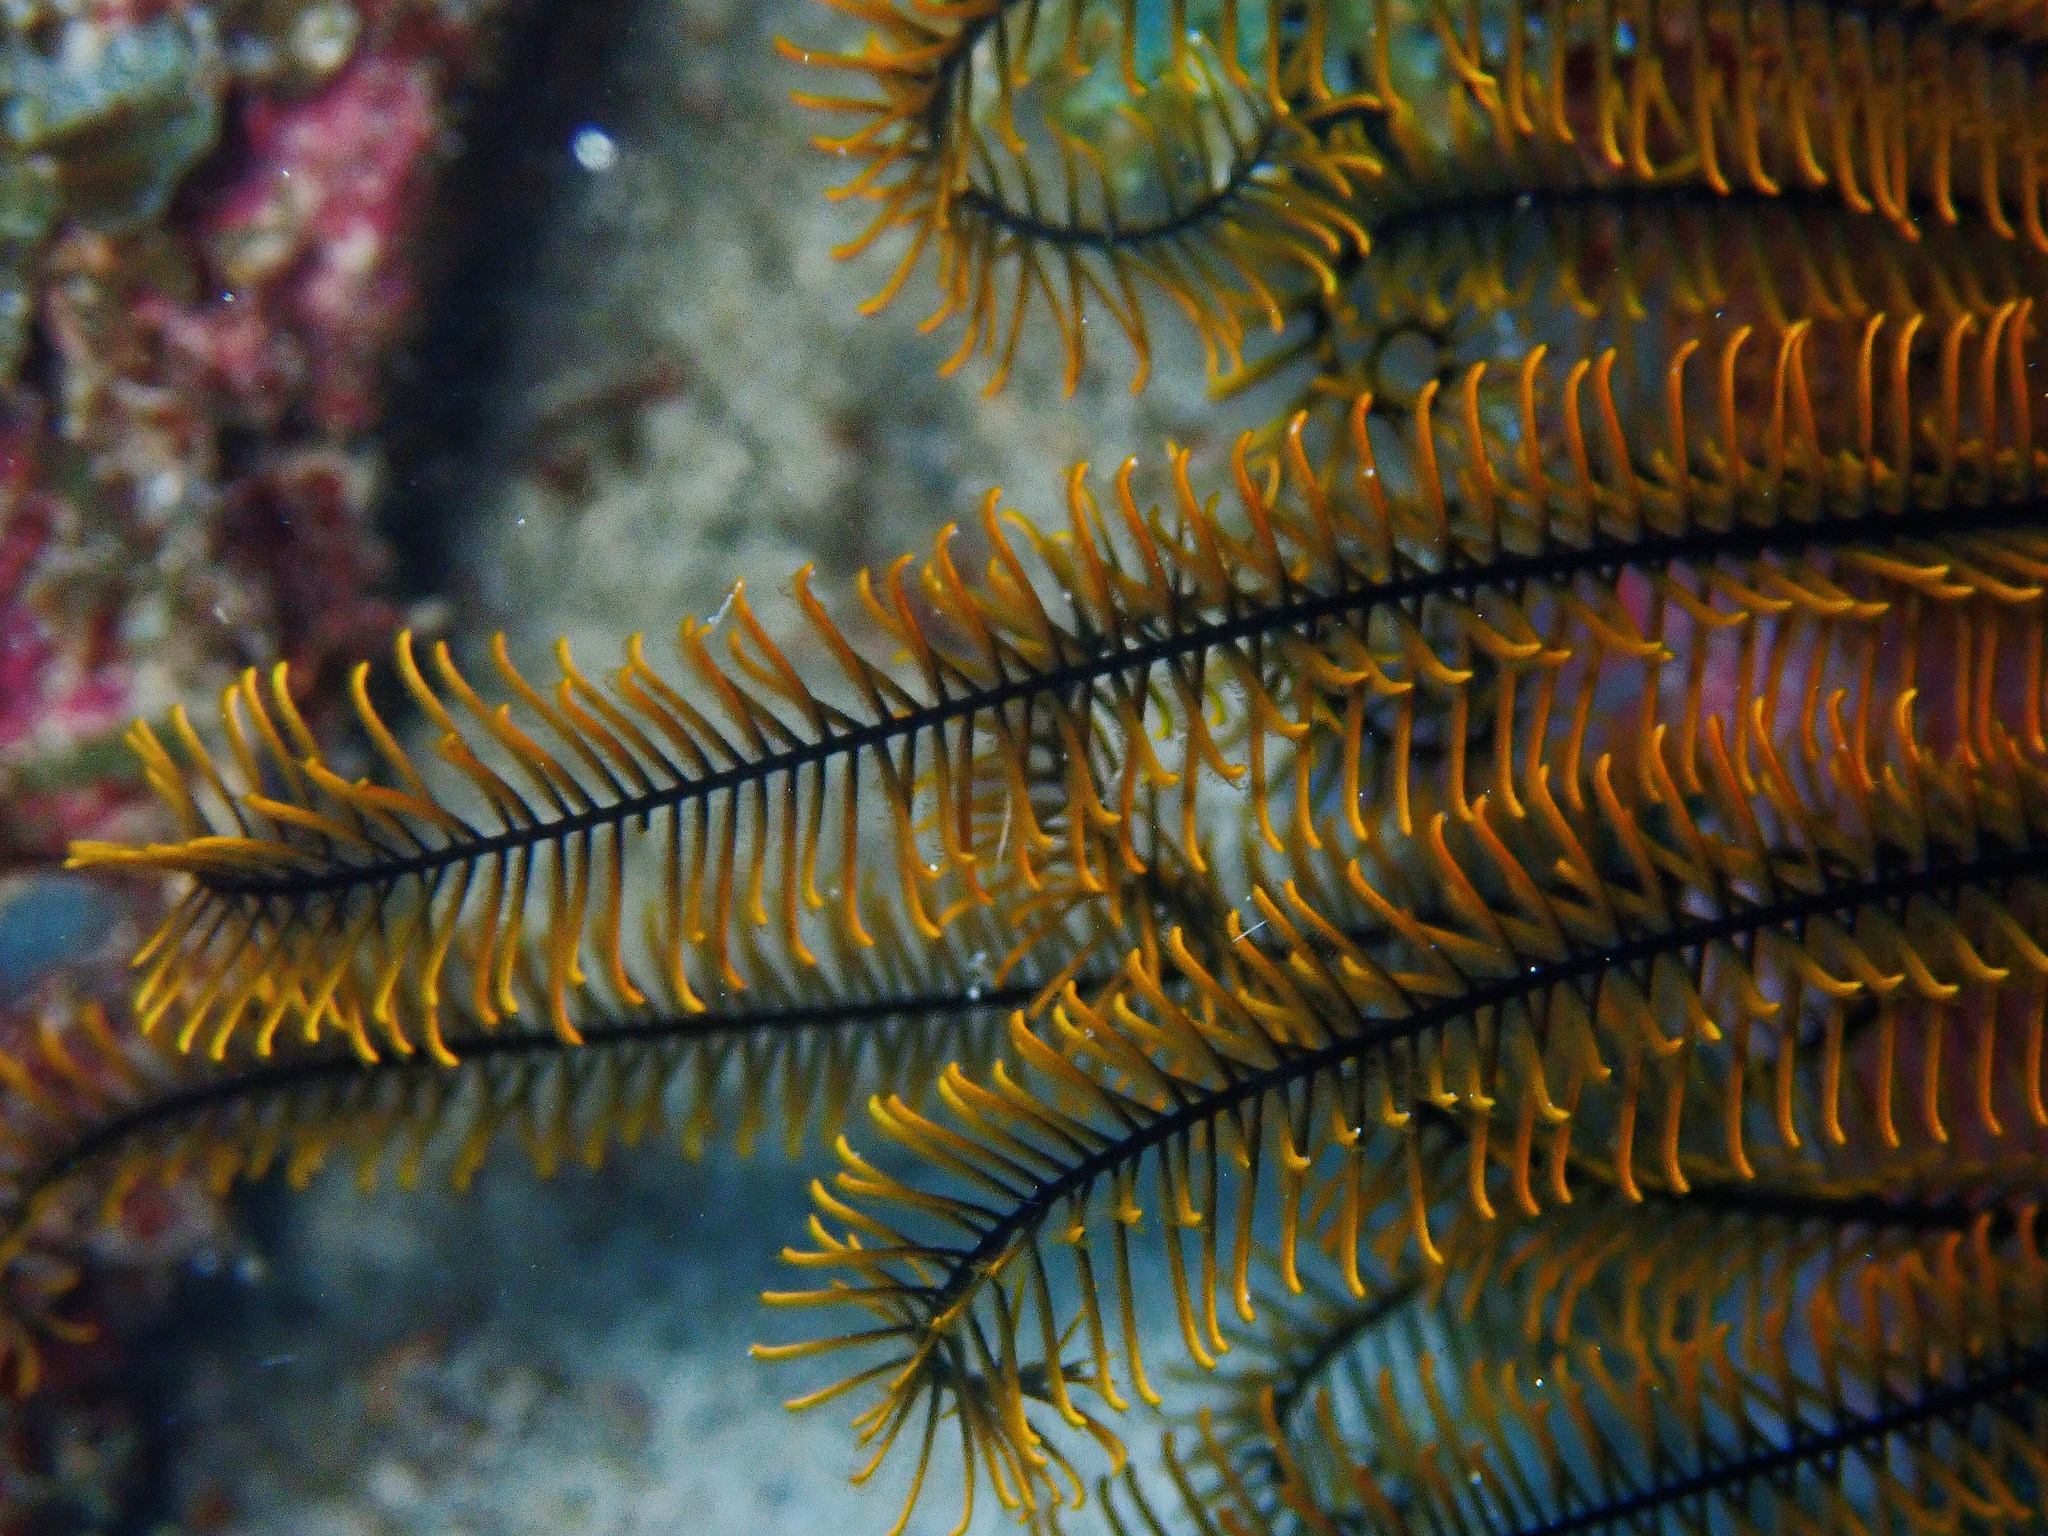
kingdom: Animalia
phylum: Echinodermata
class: Crinoidea
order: Comatulida
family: Comatulidae
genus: Davidaster
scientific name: Davidaster rubiginosus
